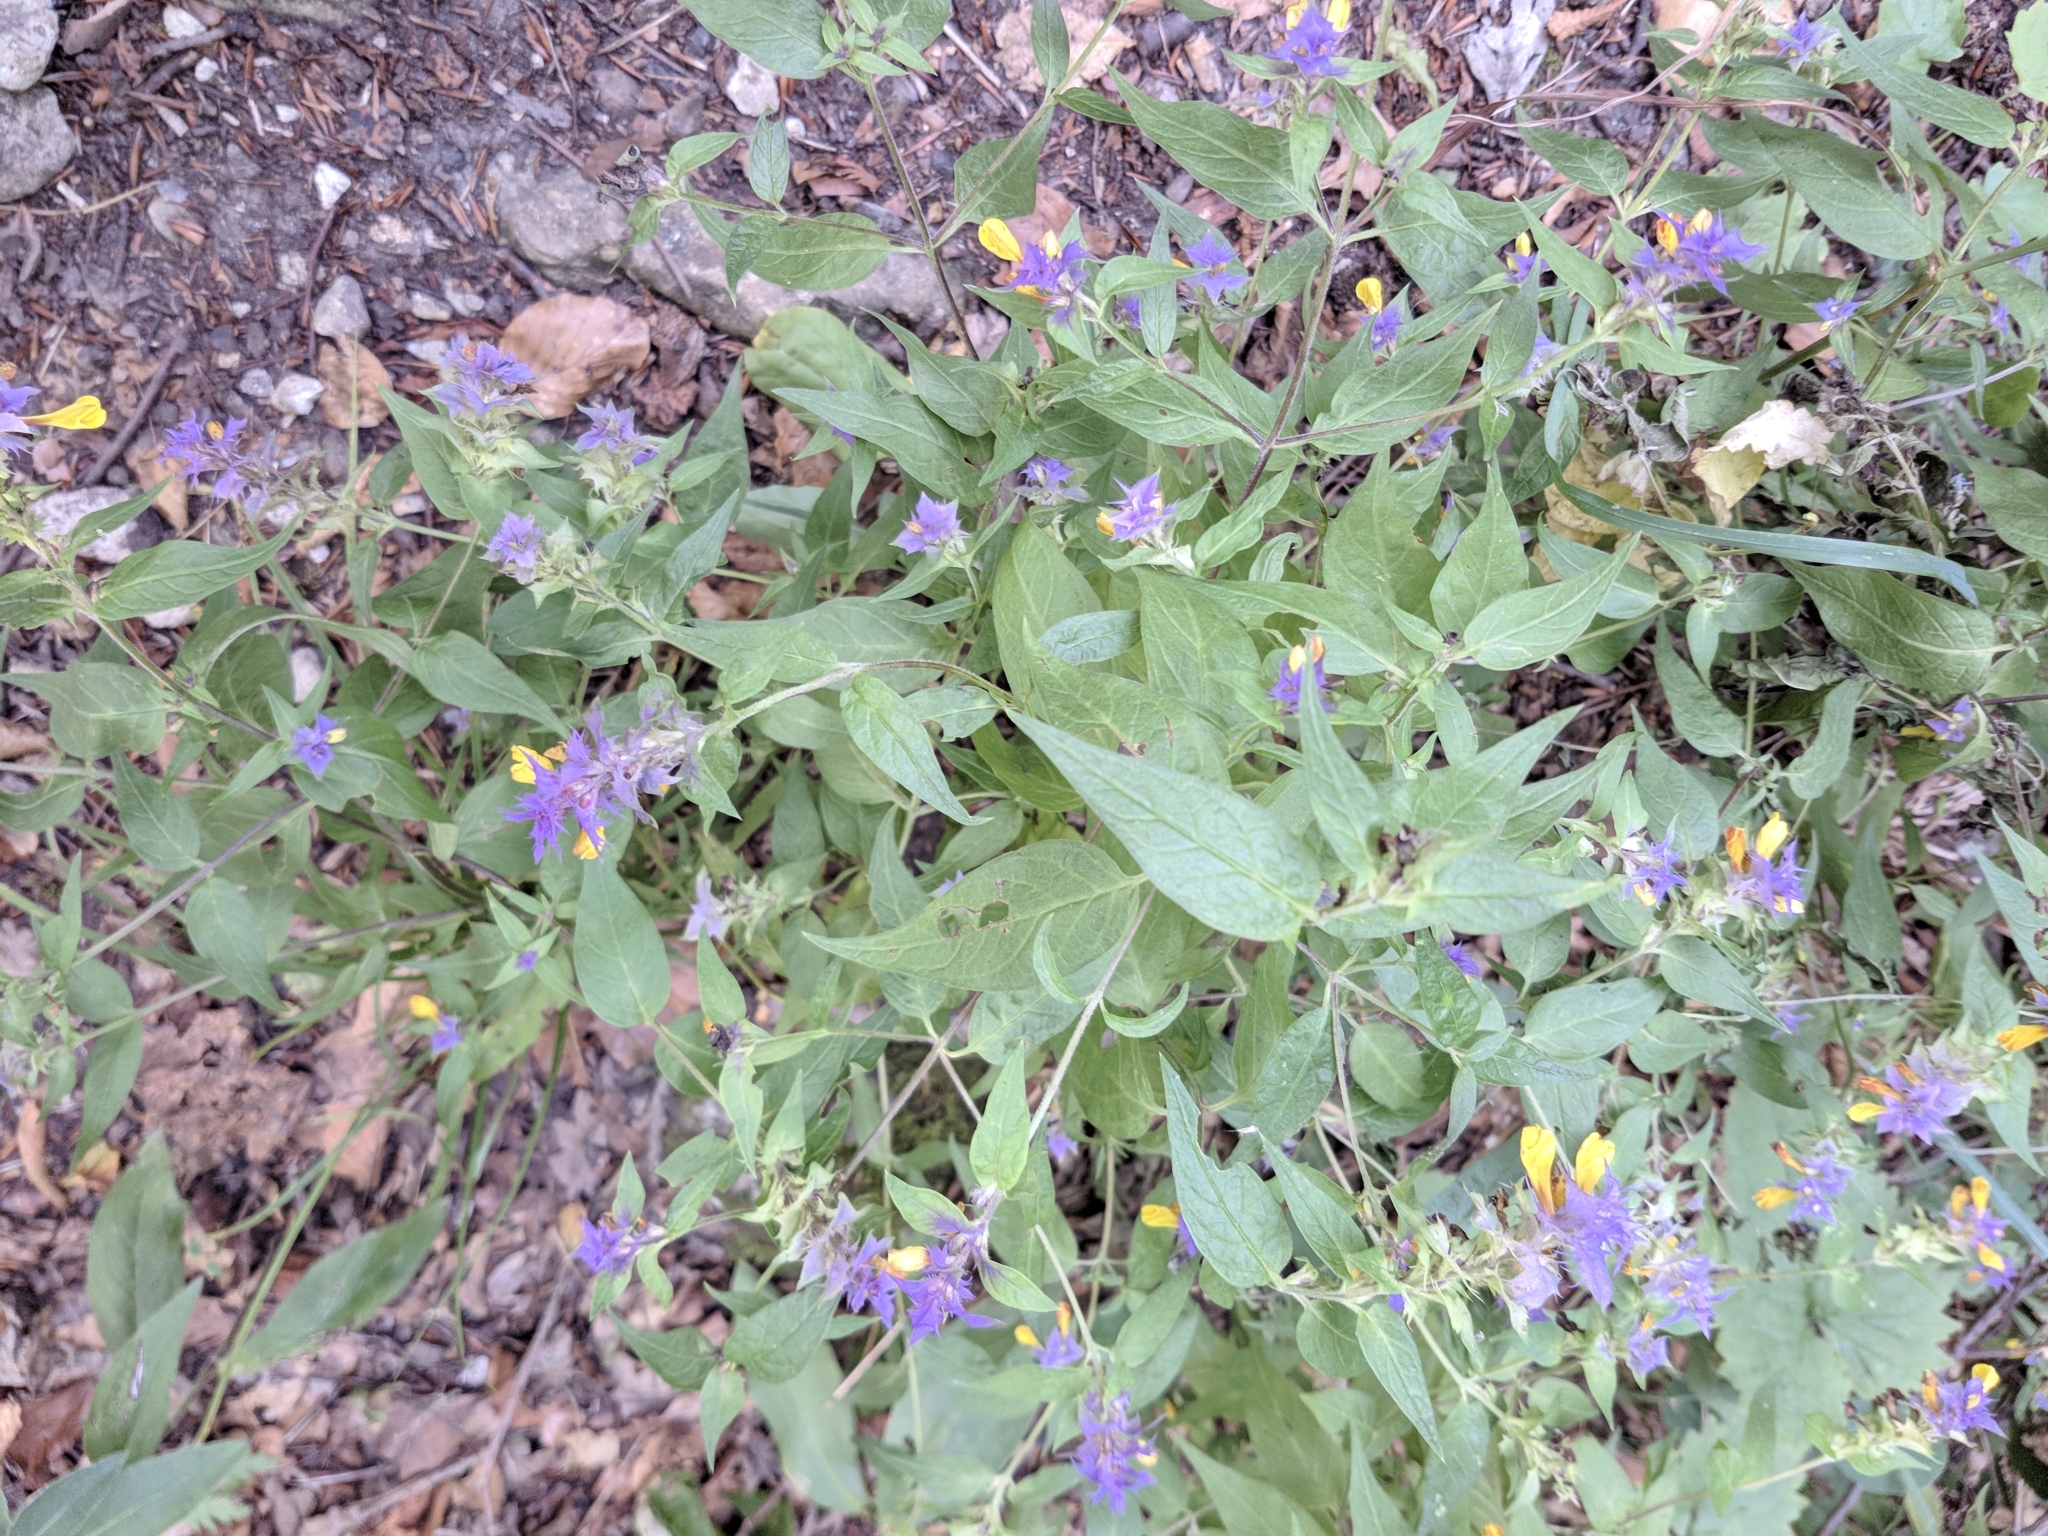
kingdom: Plantae
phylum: Tracheophyta
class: Magnoliopsida
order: Lamiales
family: Orobanchaceae
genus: Melampyrum
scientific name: Melampyrum nemorosum
